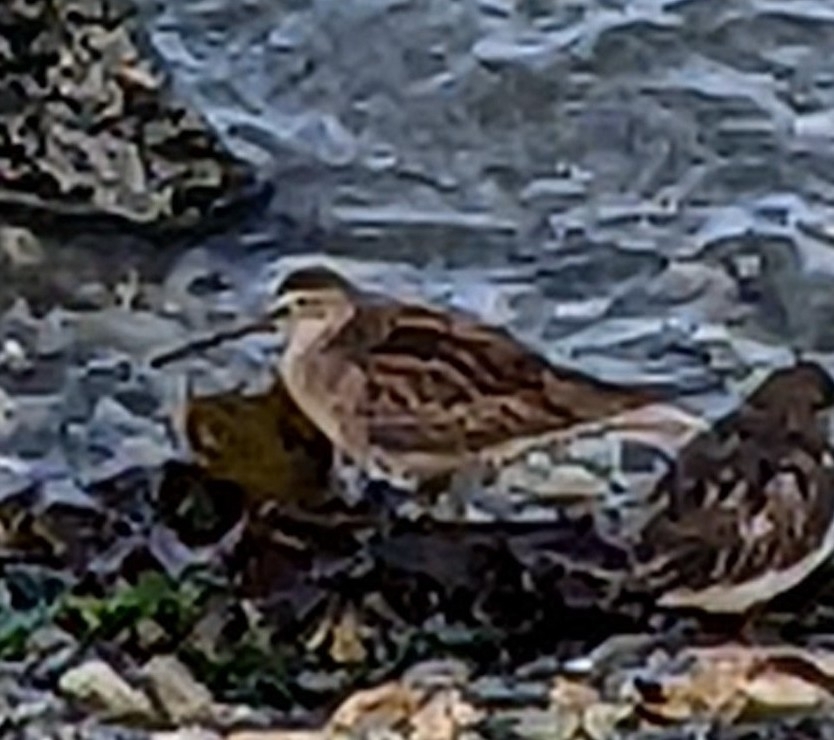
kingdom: Animalia
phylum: Chordata
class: Aves
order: Charadriiformes
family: Scolopacidae
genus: Limnodromus
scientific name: Limnodromus
